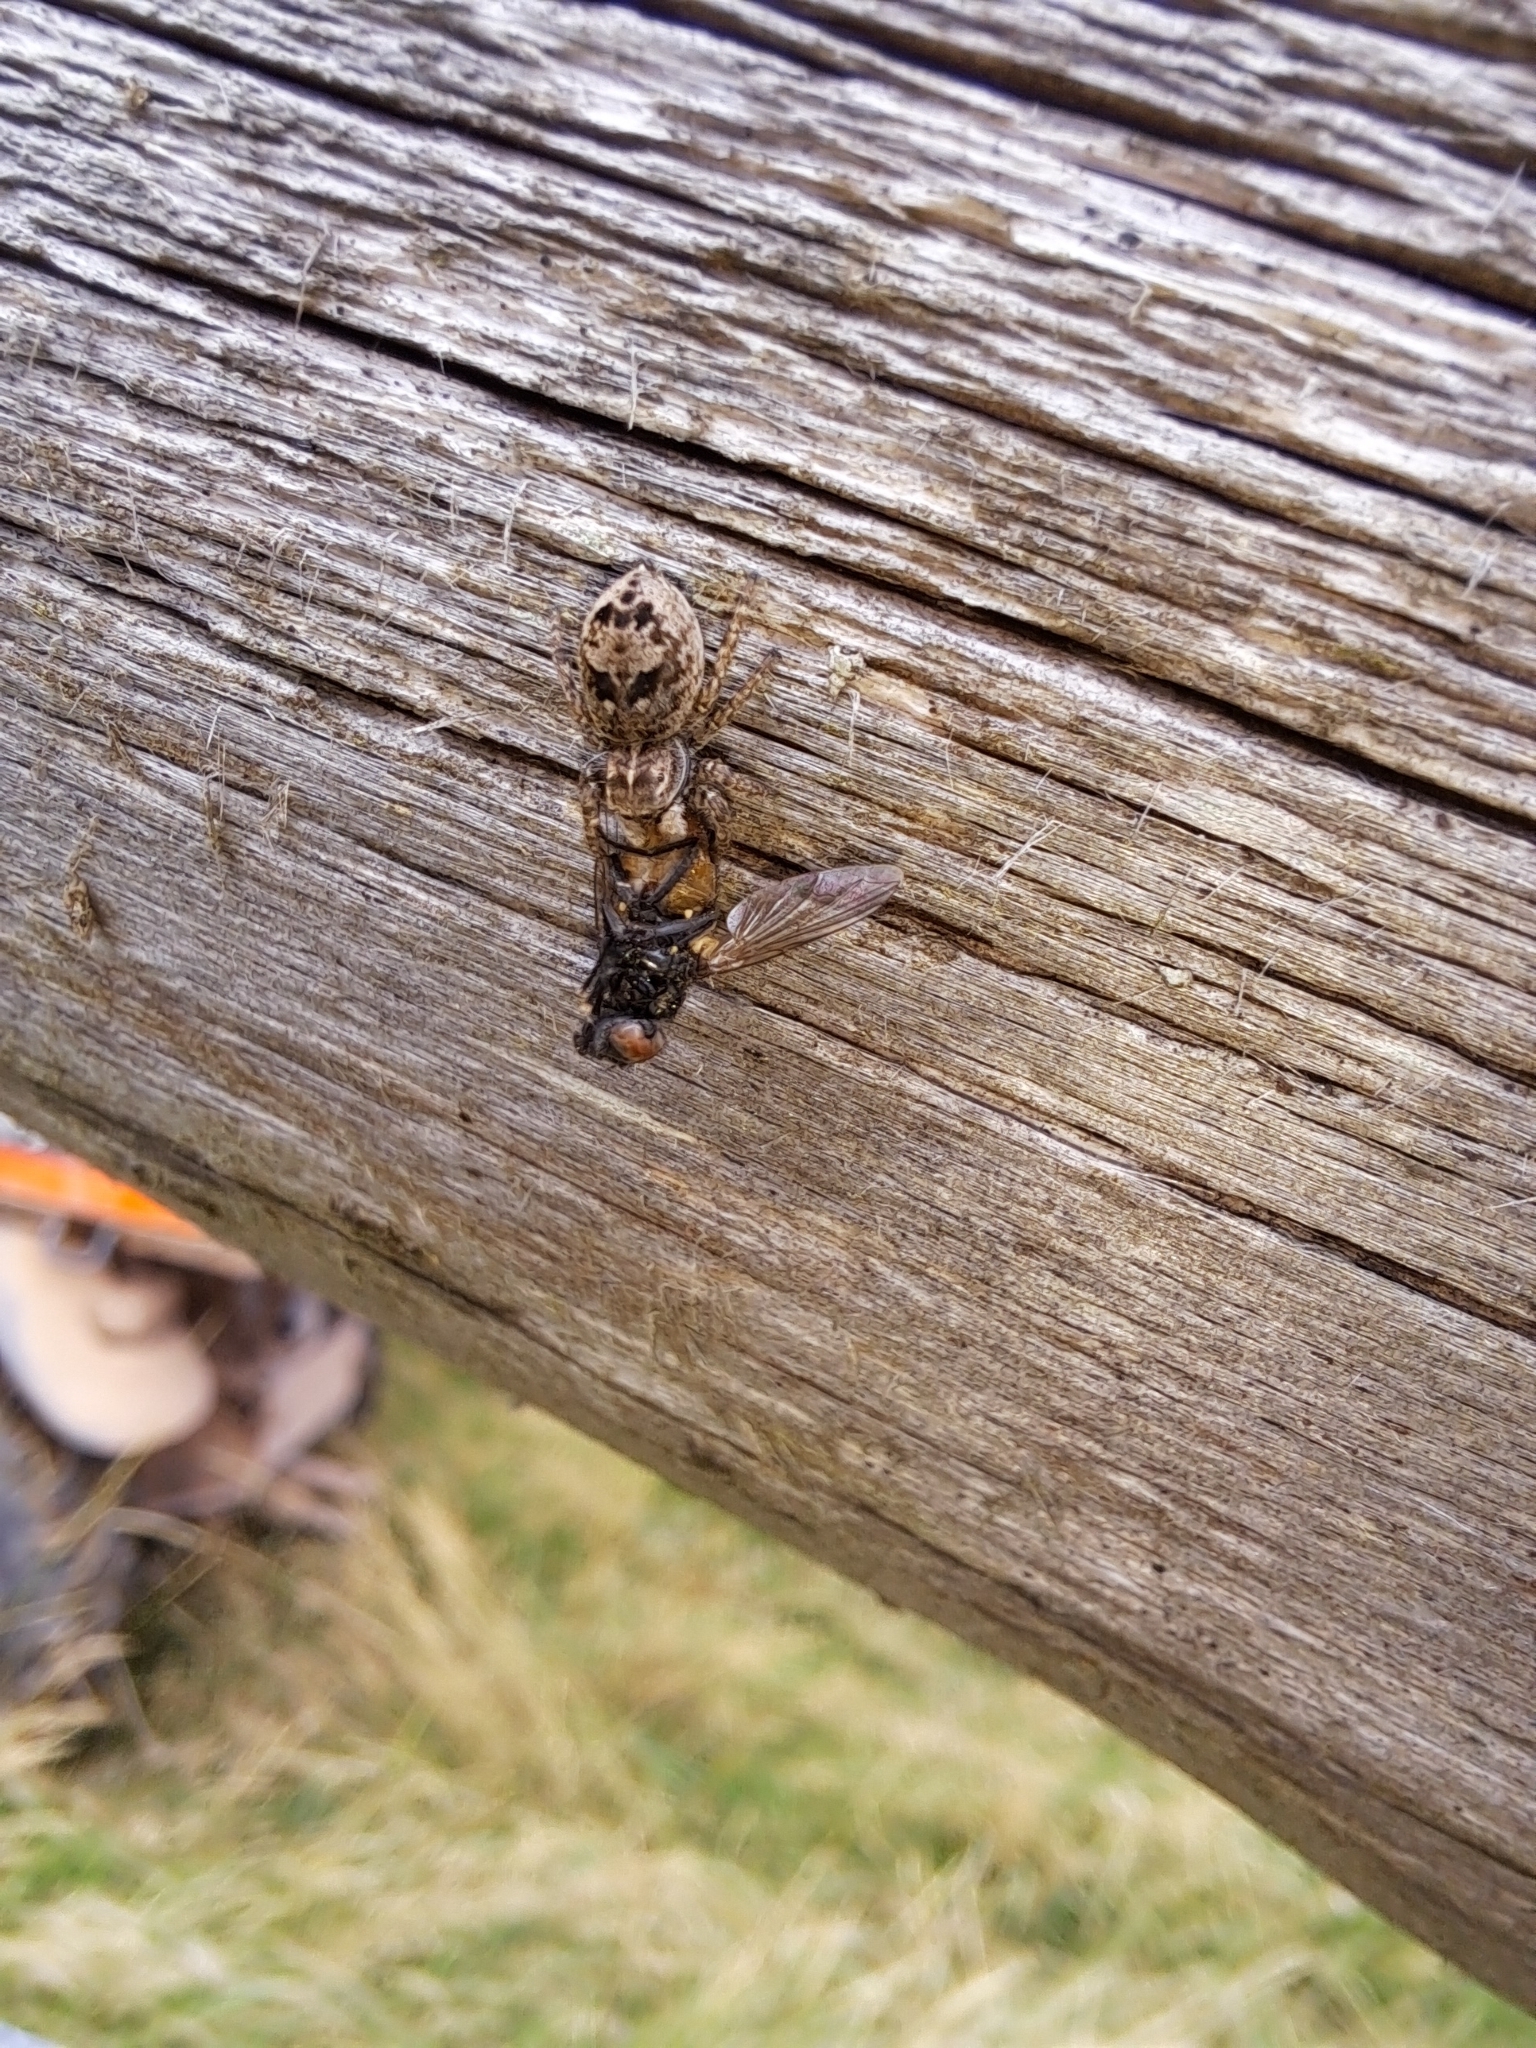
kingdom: Animalia
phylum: Arthropoda
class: Arachnida
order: Araneae
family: Salticidae
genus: Attulus
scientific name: Attulus floricola
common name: Flower jumping spider
